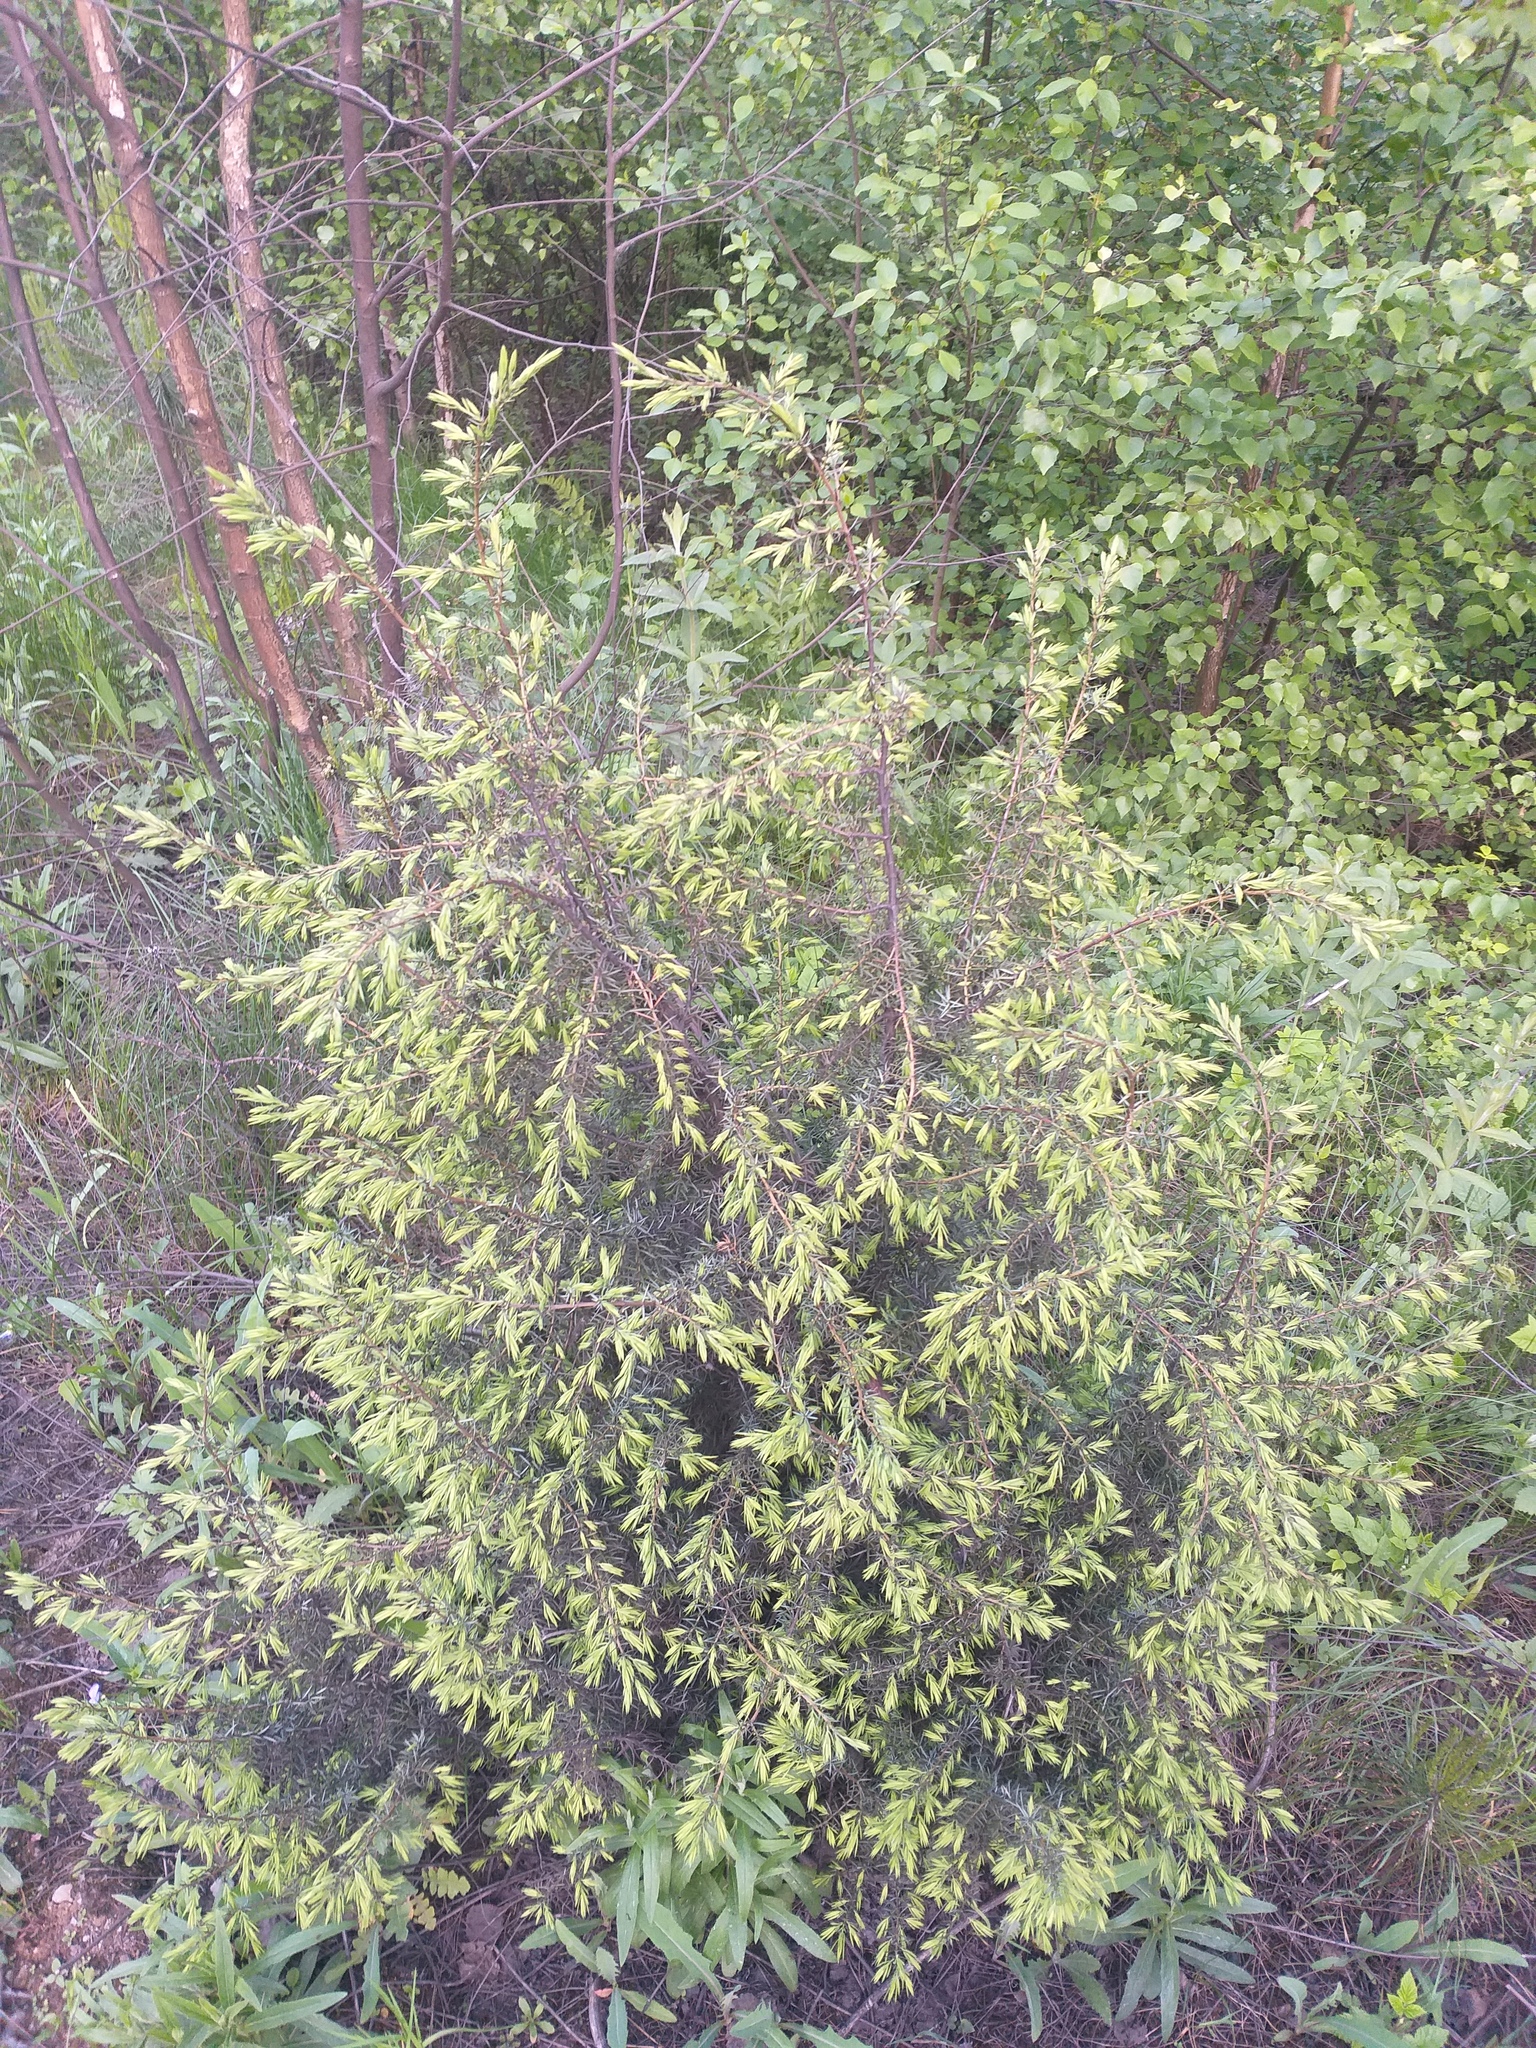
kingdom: Plantae
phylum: Tracheophyta
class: Pinopsida
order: Pinales
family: Cupressaceae
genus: Juniperus
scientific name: Juniperus communis
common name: Common juniper
